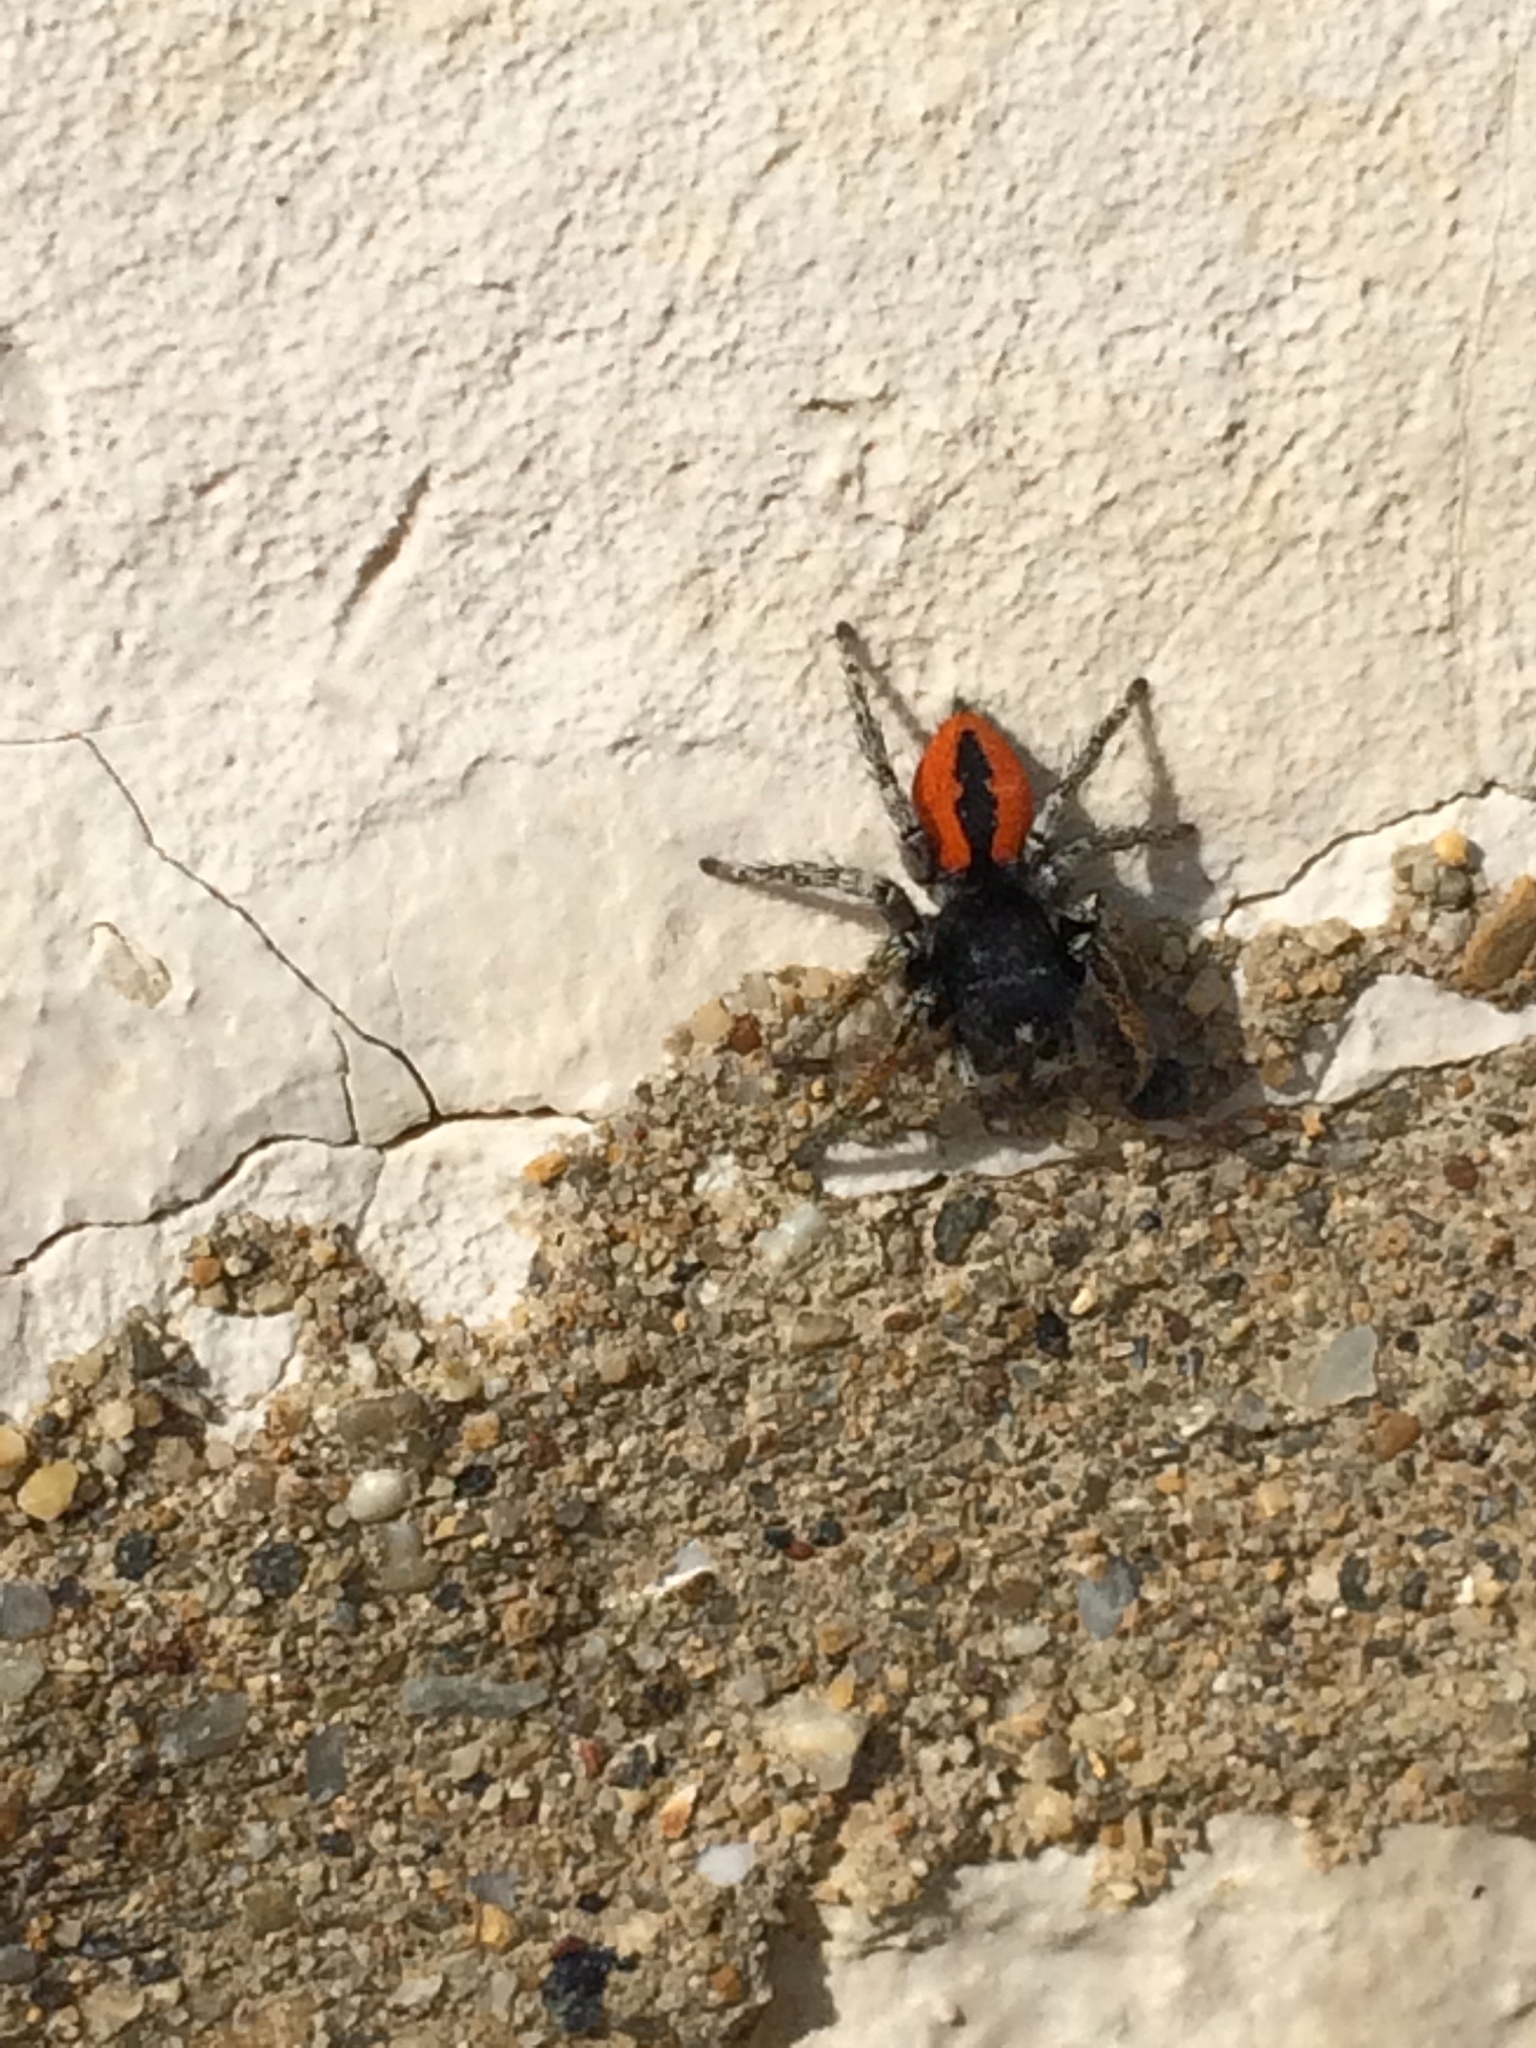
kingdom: Animalia
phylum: Arthropoda
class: Arachnida
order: Araneae
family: Salticidae
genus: Philaeus
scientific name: Philaeus chrysops
